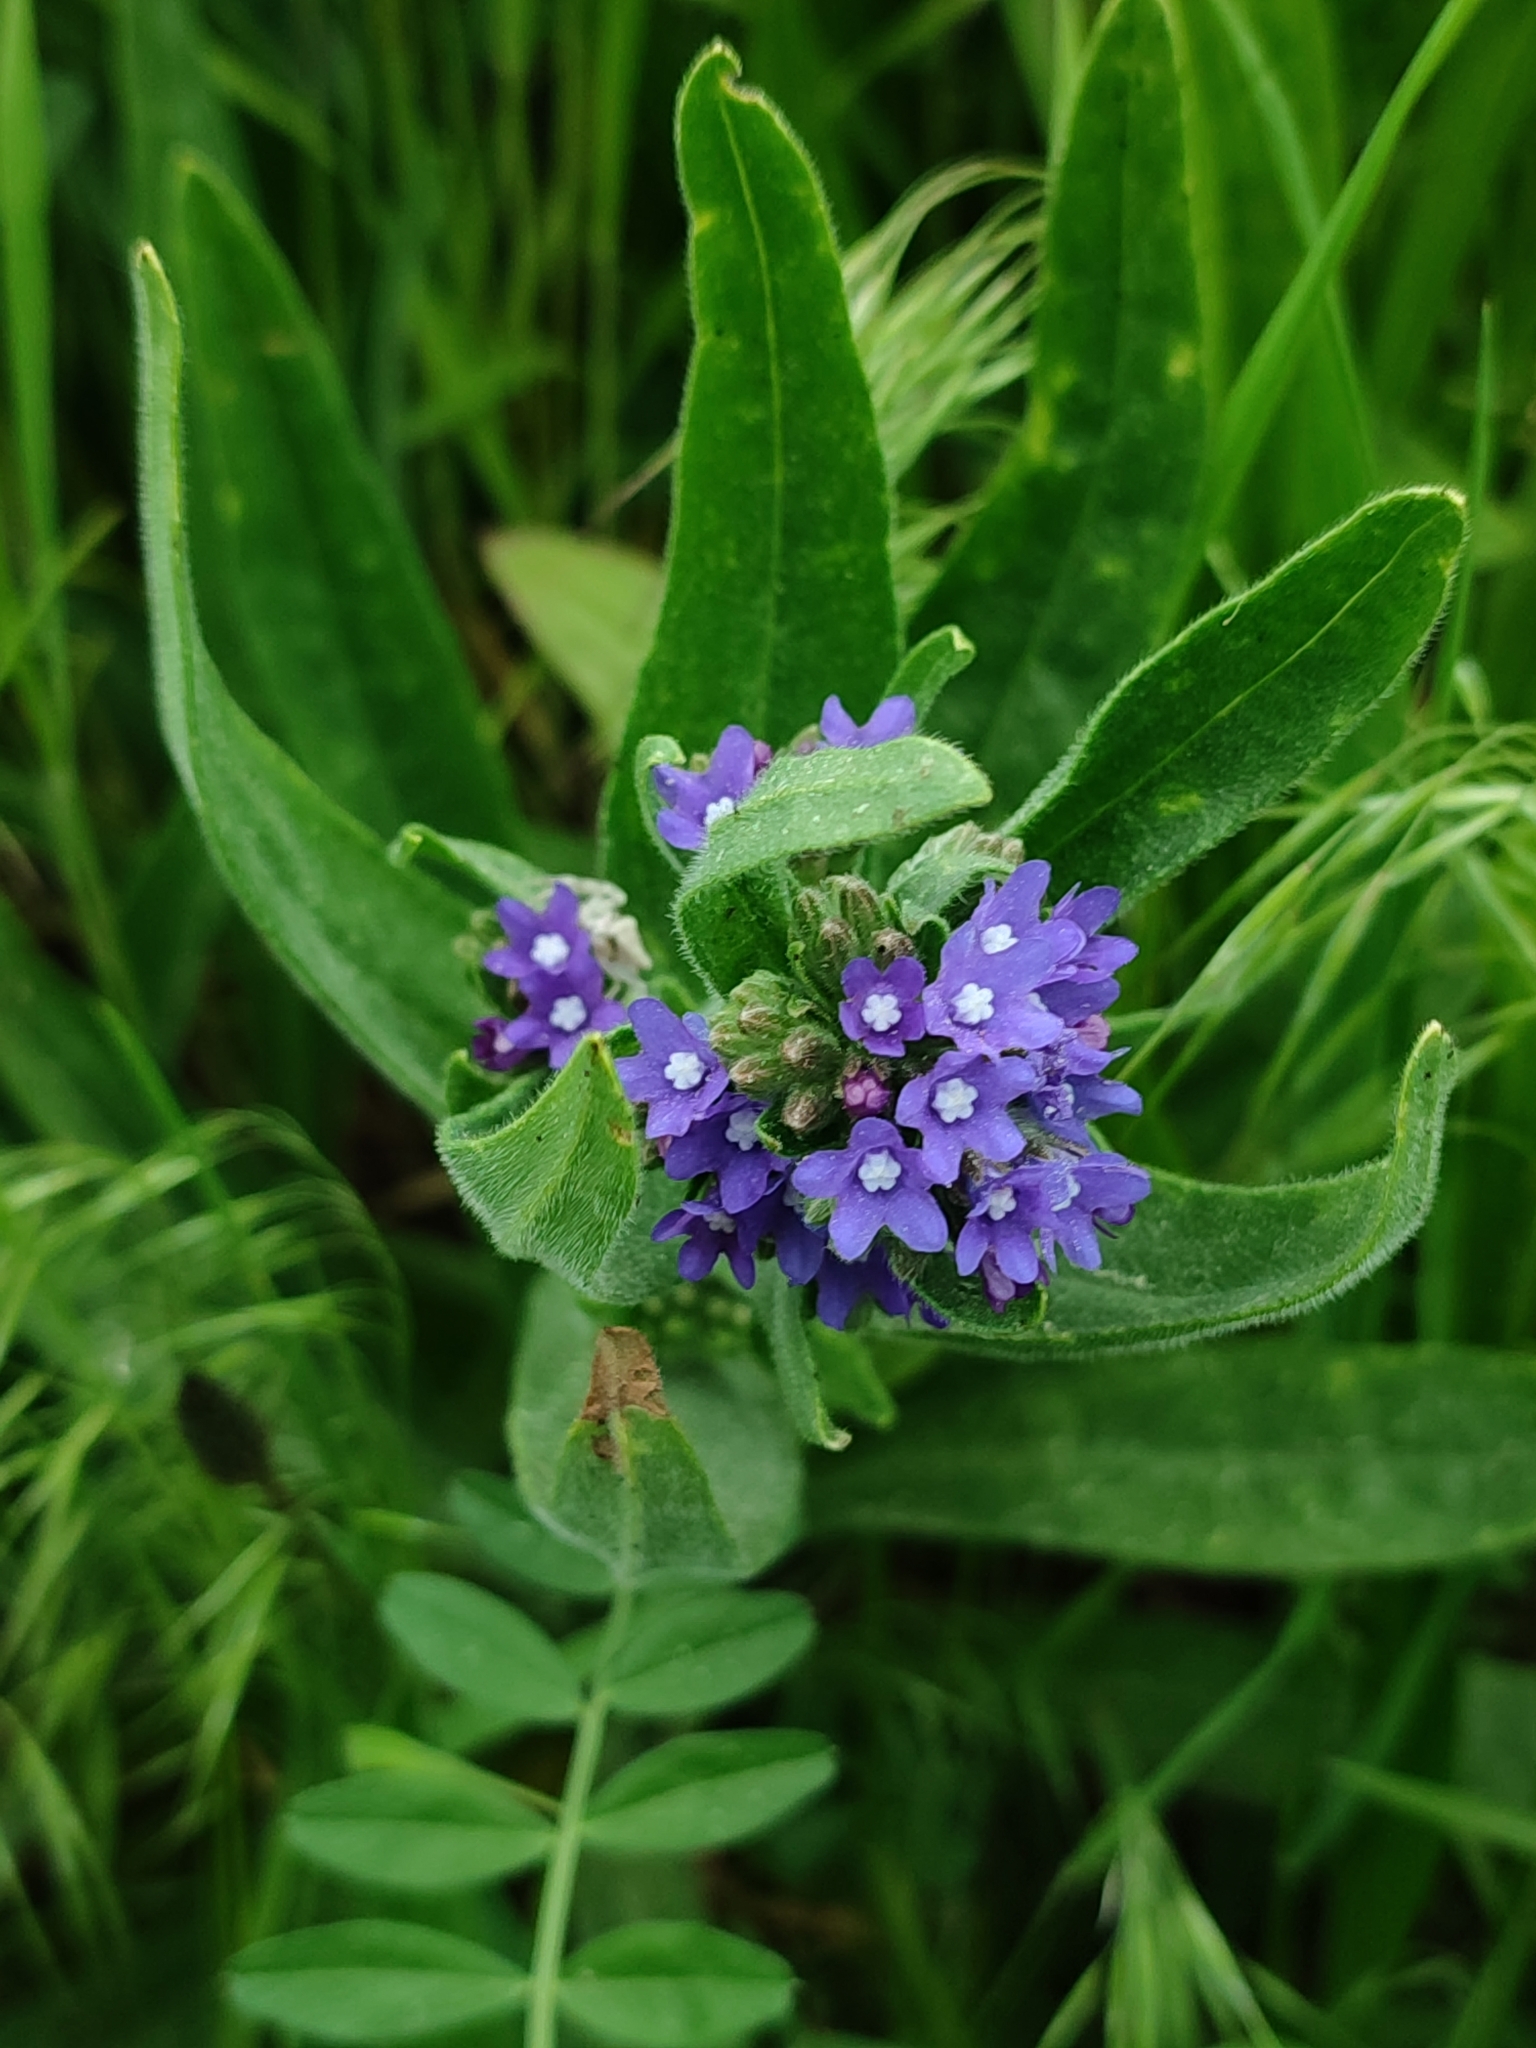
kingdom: Plantae
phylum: Tracheophyta
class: Magnoliopsida
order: Boraginales
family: Boraginaceae
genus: Anchusa
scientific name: Anchusa officinalis
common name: Alkanet
